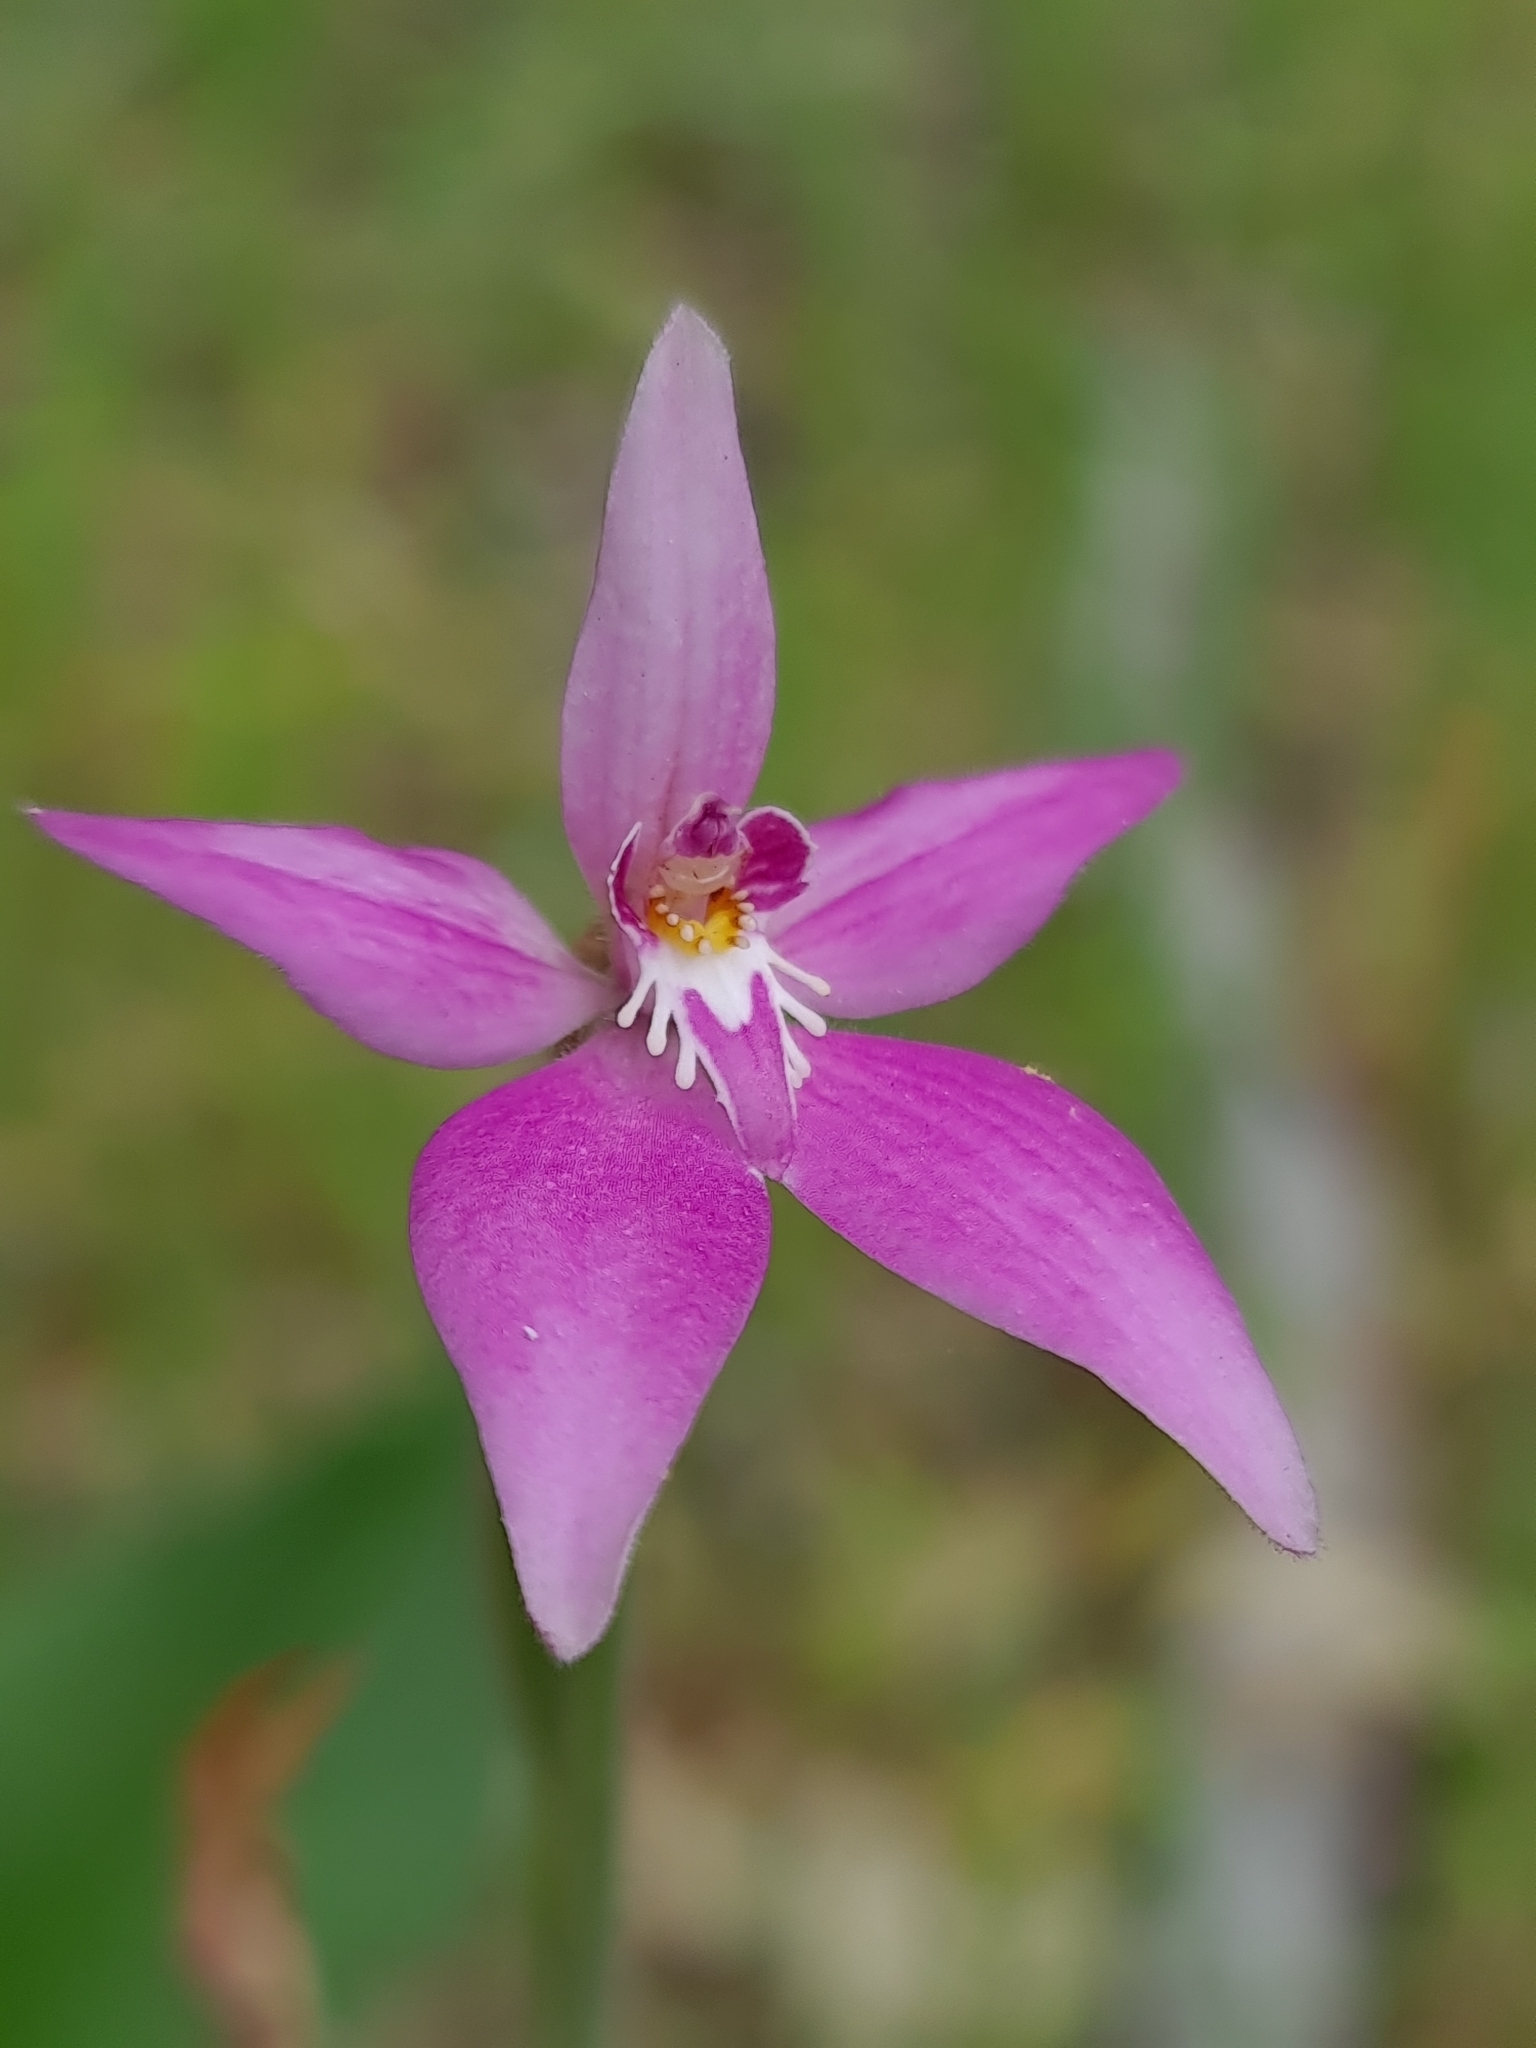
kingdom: Plantae
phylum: Tracheophyta
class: Liliopsida
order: Asparagales
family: Orchidaceae
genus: Caladenia
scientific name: Caladenia latifolia
